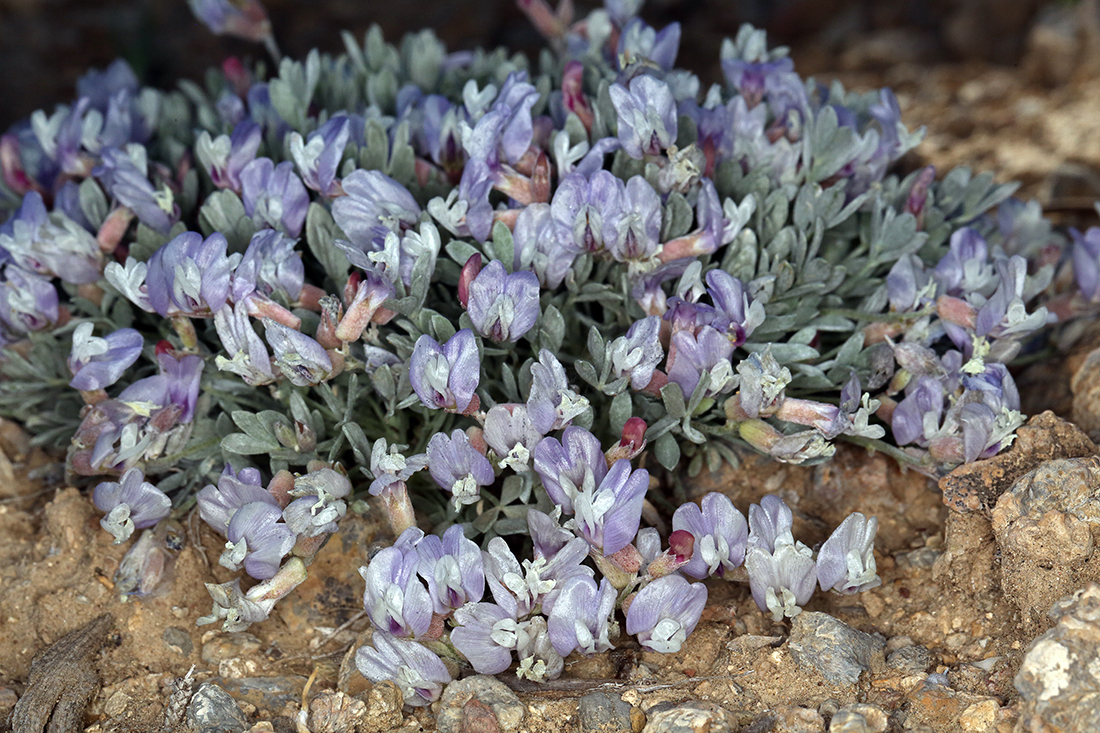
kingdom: Plantae
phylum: Tracheophyta
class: Magnoliopsida
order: Fabales
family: Fabaceae
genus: Astragalus
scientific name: Astragalus calycosus
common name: King's milkvetch
